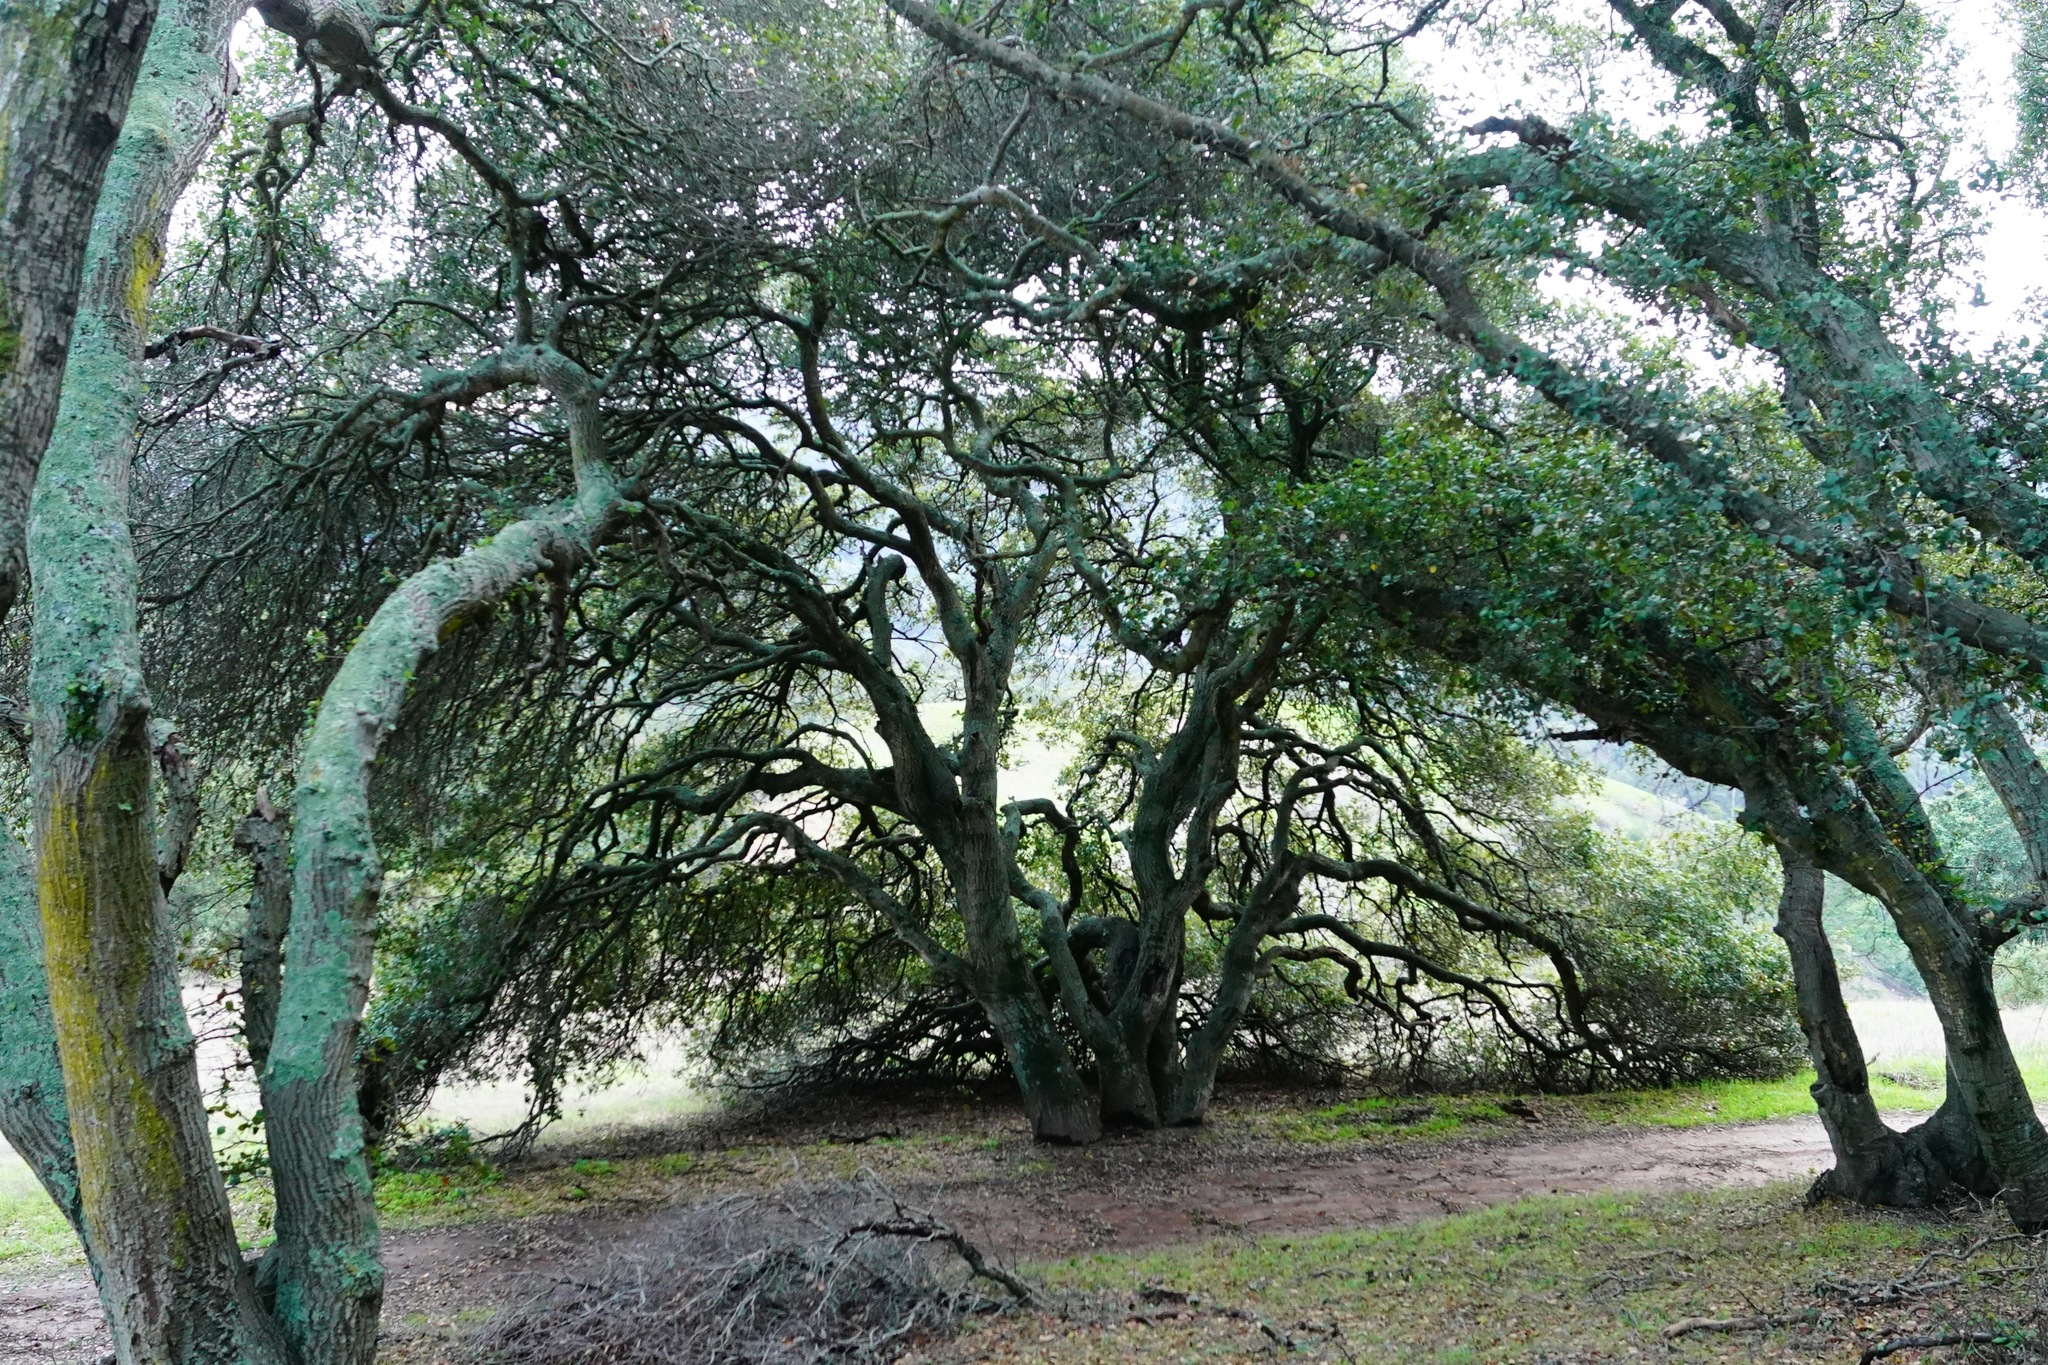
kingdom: Plantae
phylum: Tracheophyta
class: Magnoliopsida
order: Fagales
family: Fagaceae
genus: Quercus
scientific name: Quercus agrifolia
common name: California live oak
